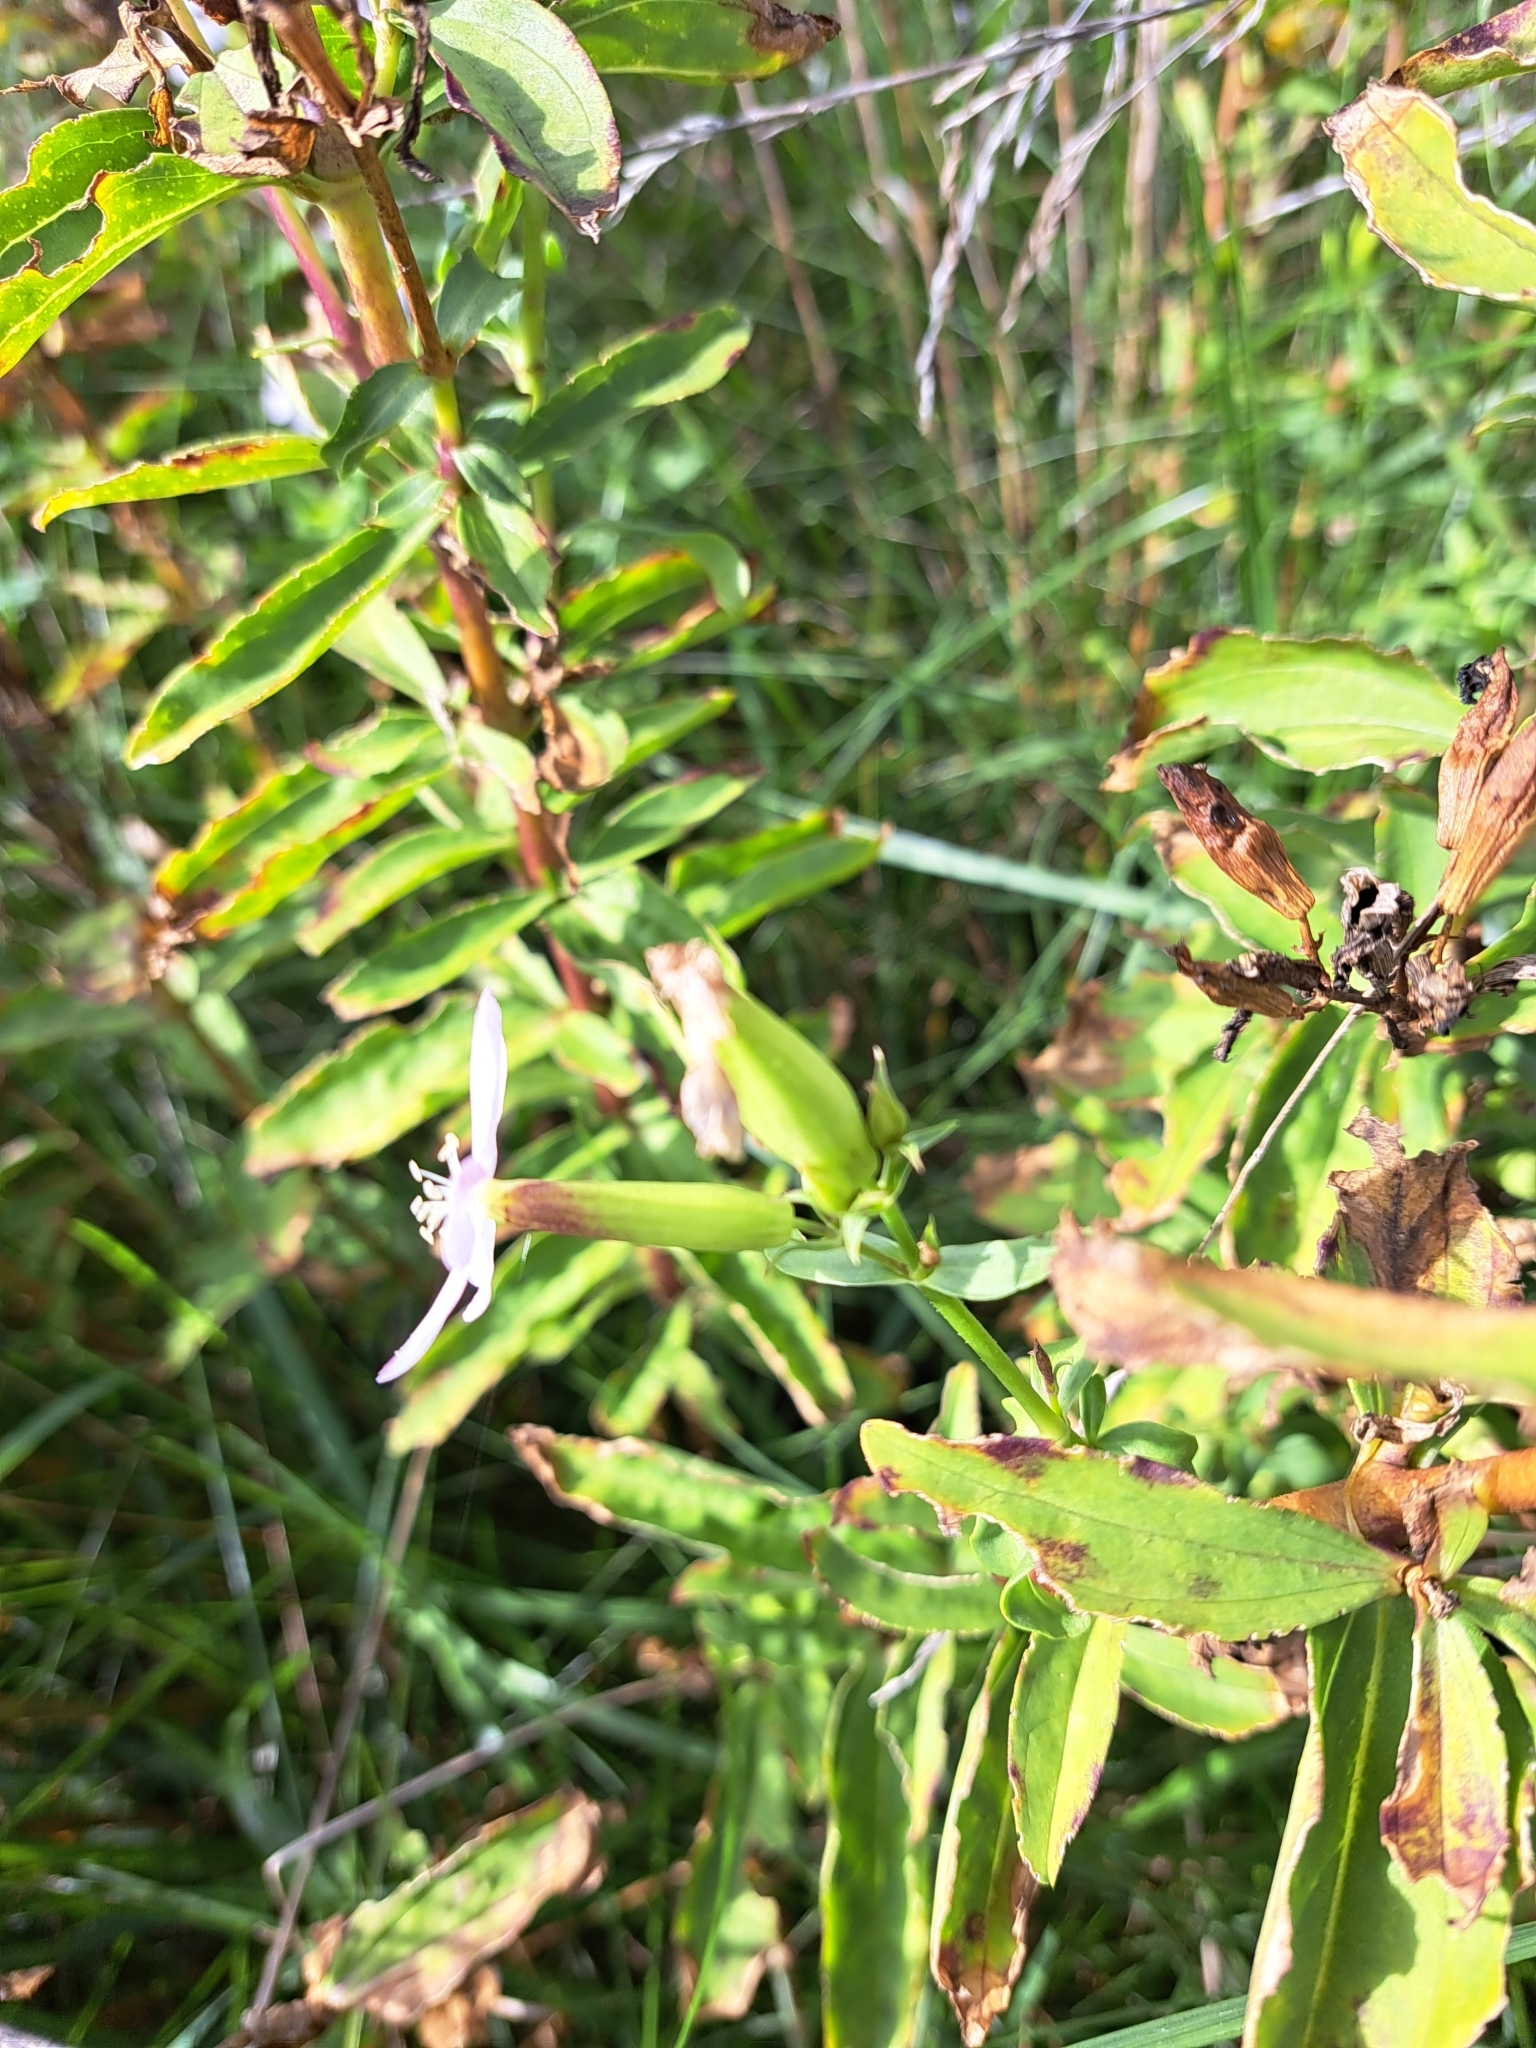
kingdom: Plantae
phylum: Tracheophyta
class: Magnoliopsida
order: Caryophyllales
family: Caryophyllaceae
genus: Saponaria
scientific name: Saponaria officinalis
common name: Soapwort
